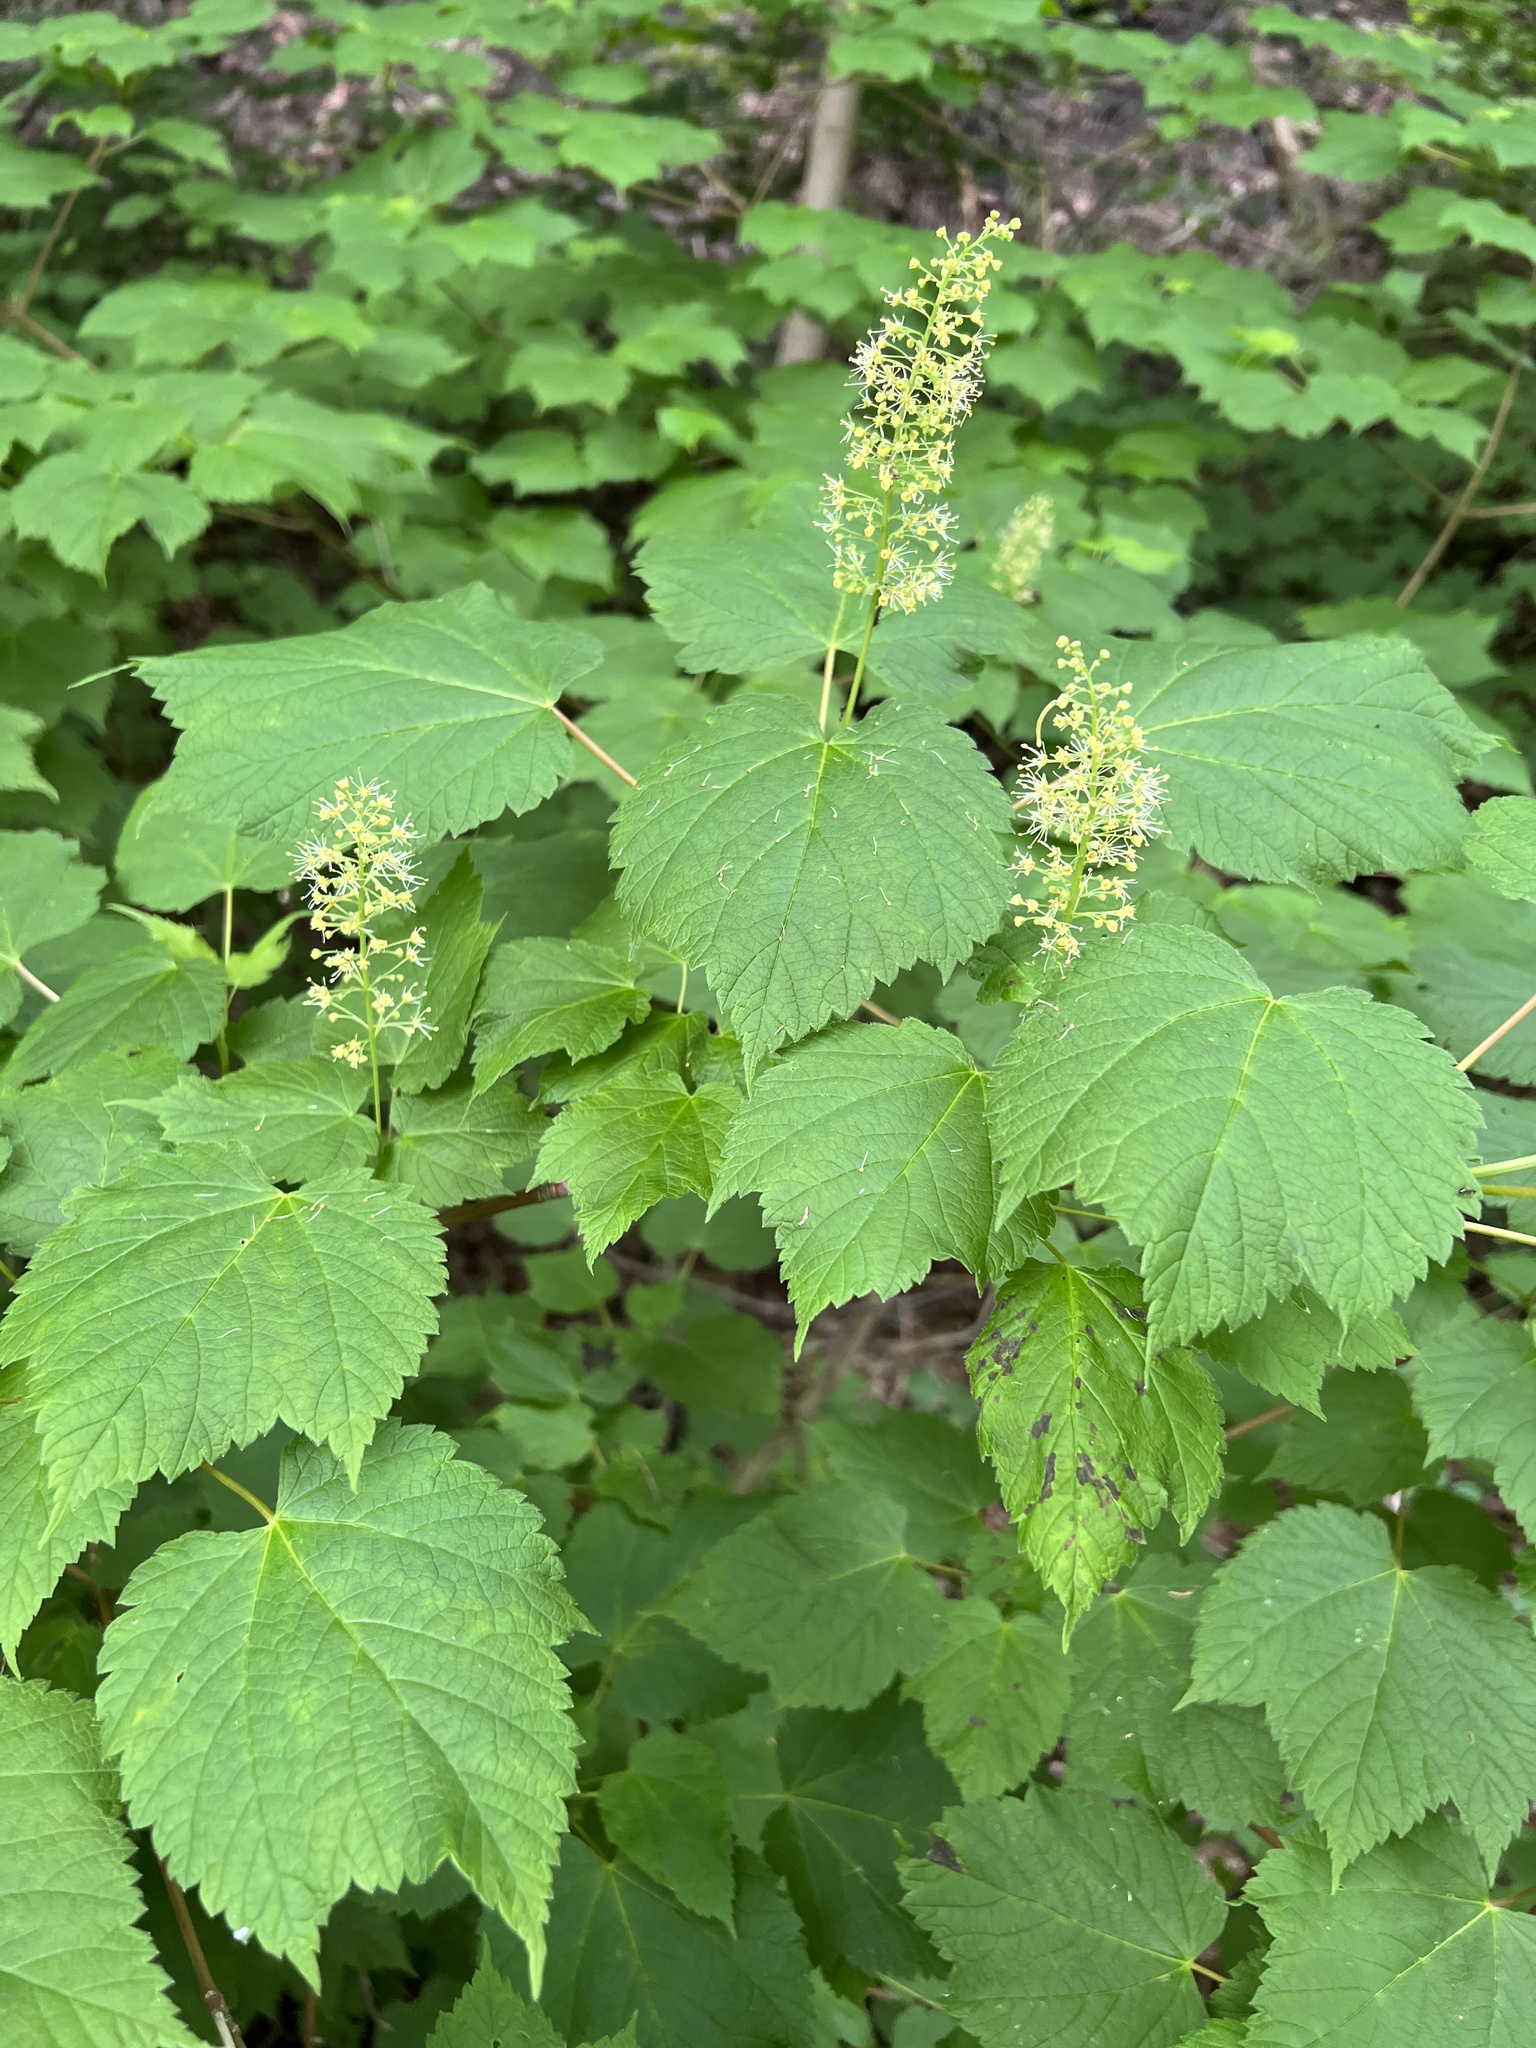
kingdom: Plantae
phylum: Tracheophyta
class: Magnoliopsida
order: Sapindales
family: Sapindaceae
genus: Acer
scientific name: Acer spicatum
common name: Mountain maple
